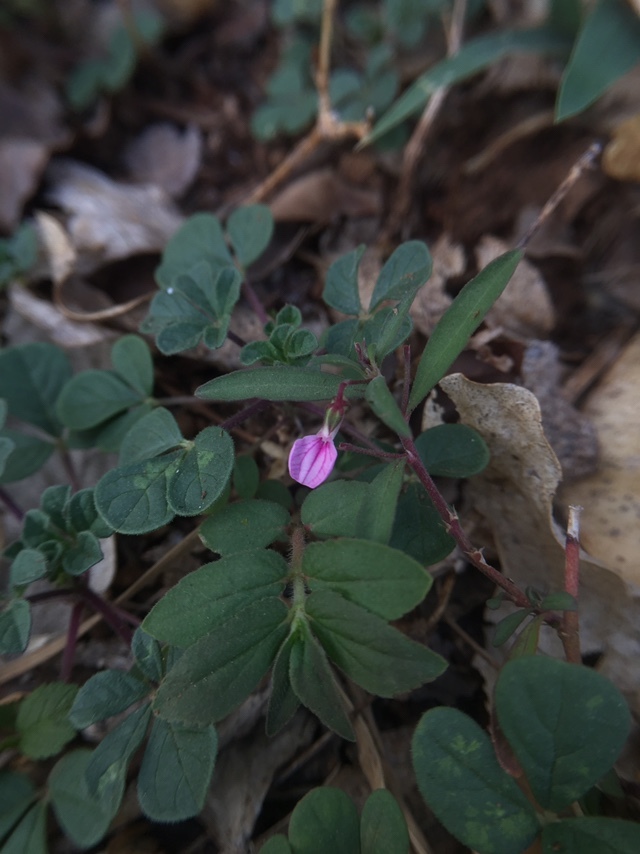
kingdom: Plantae
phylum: Tracheophyta
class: Magnoliopsida
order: Malpighiales
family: Violaceae
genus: Pigea
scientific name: Pigea enneasperma
